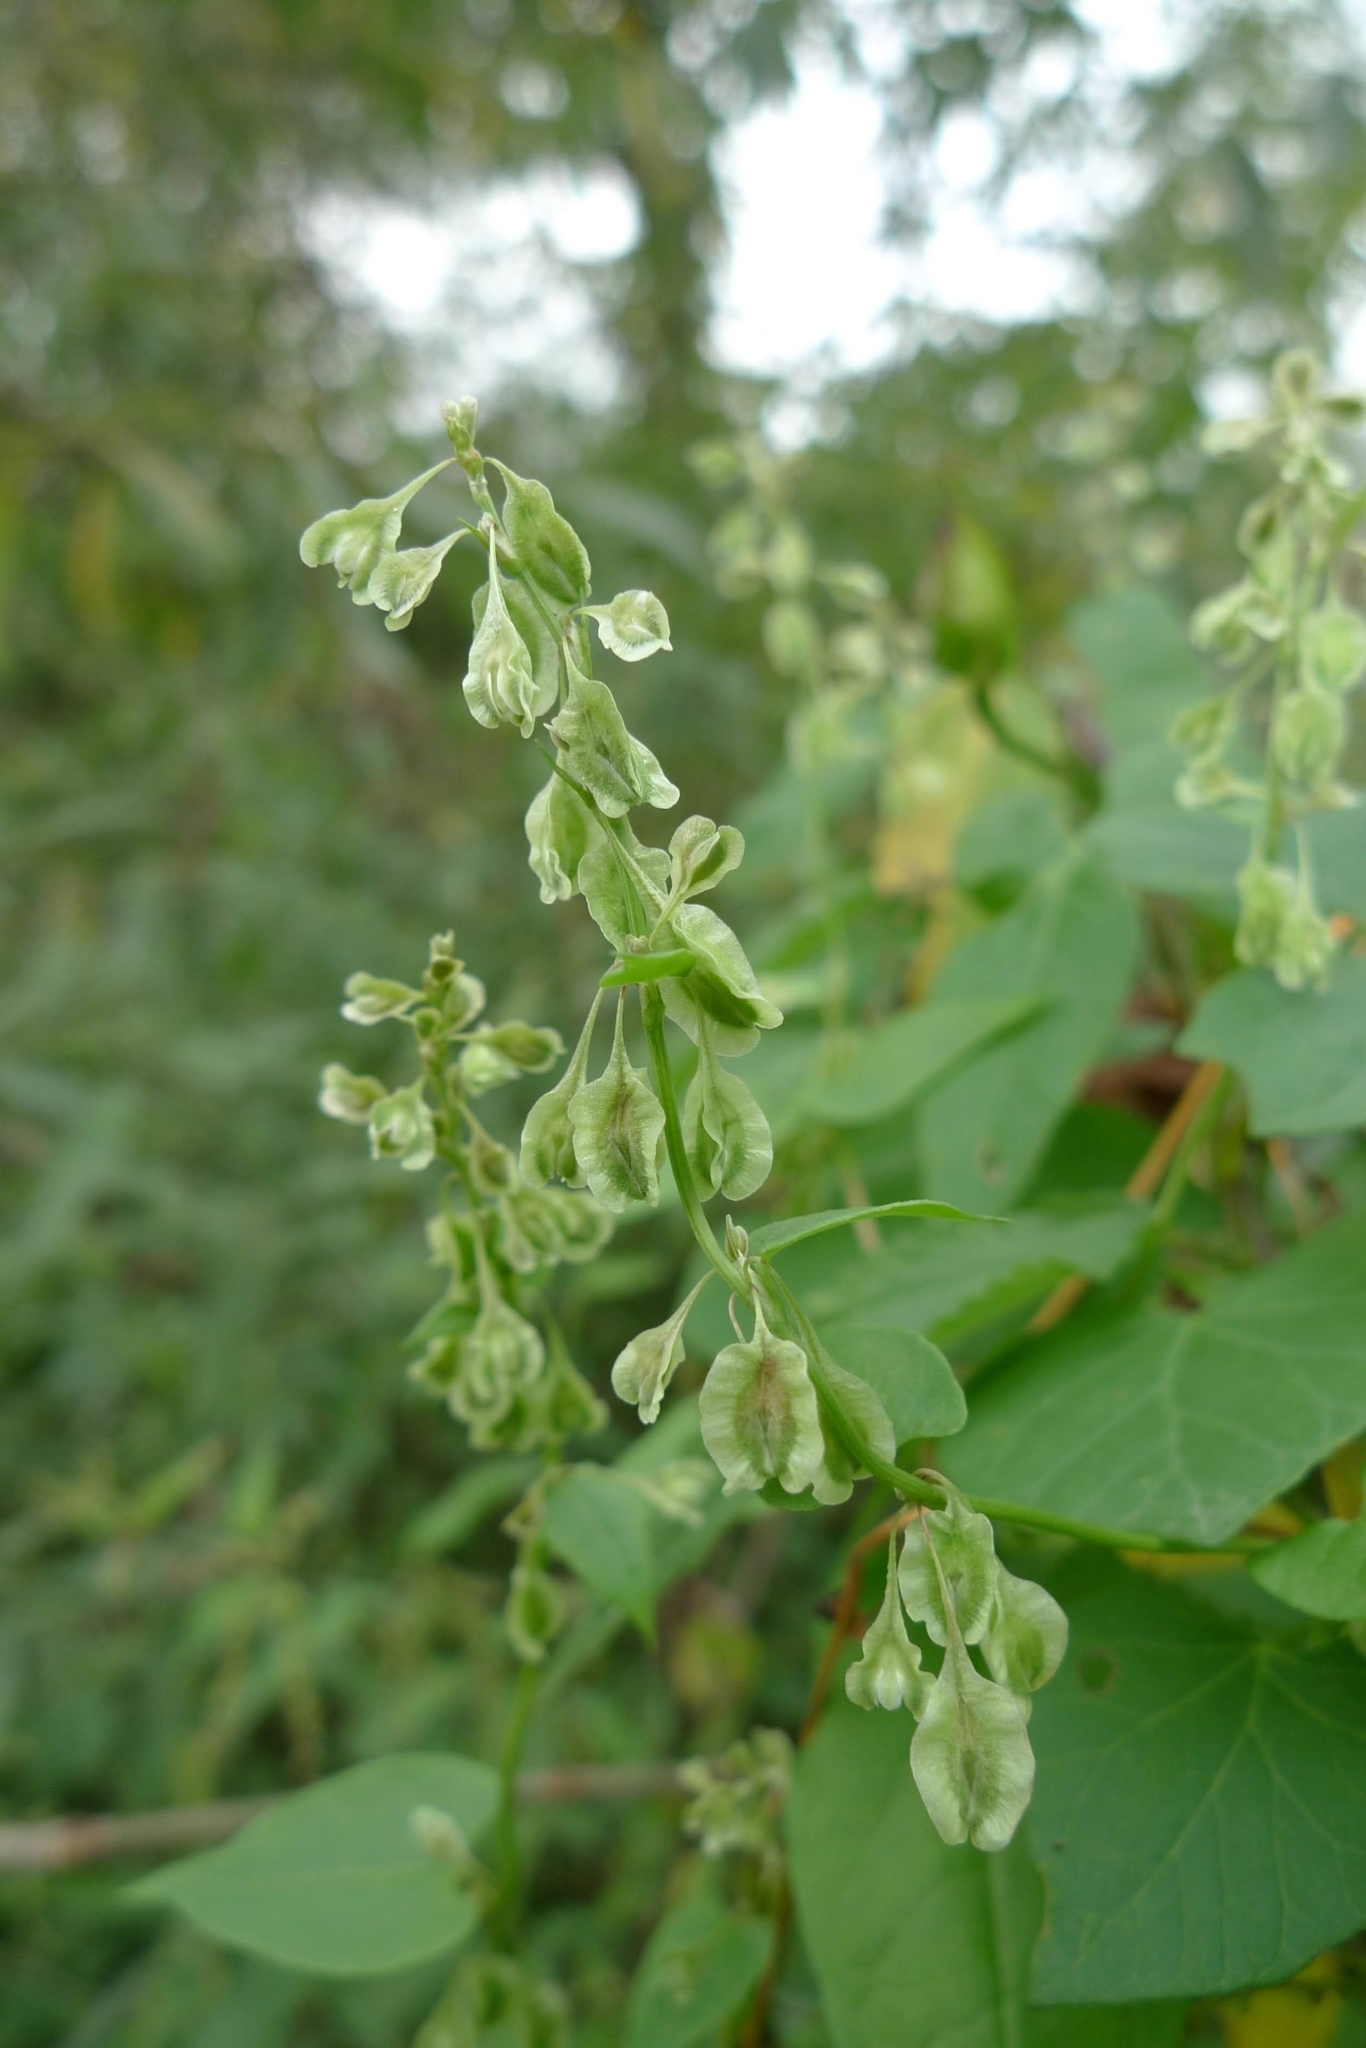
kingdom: Plantae
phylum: Tracheophyta
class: Magnoliopsida
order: Caryophyllales
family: Polygonaceae
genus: Fallopia
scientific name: Fallopia dumetorum
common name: Copse-bindweed
